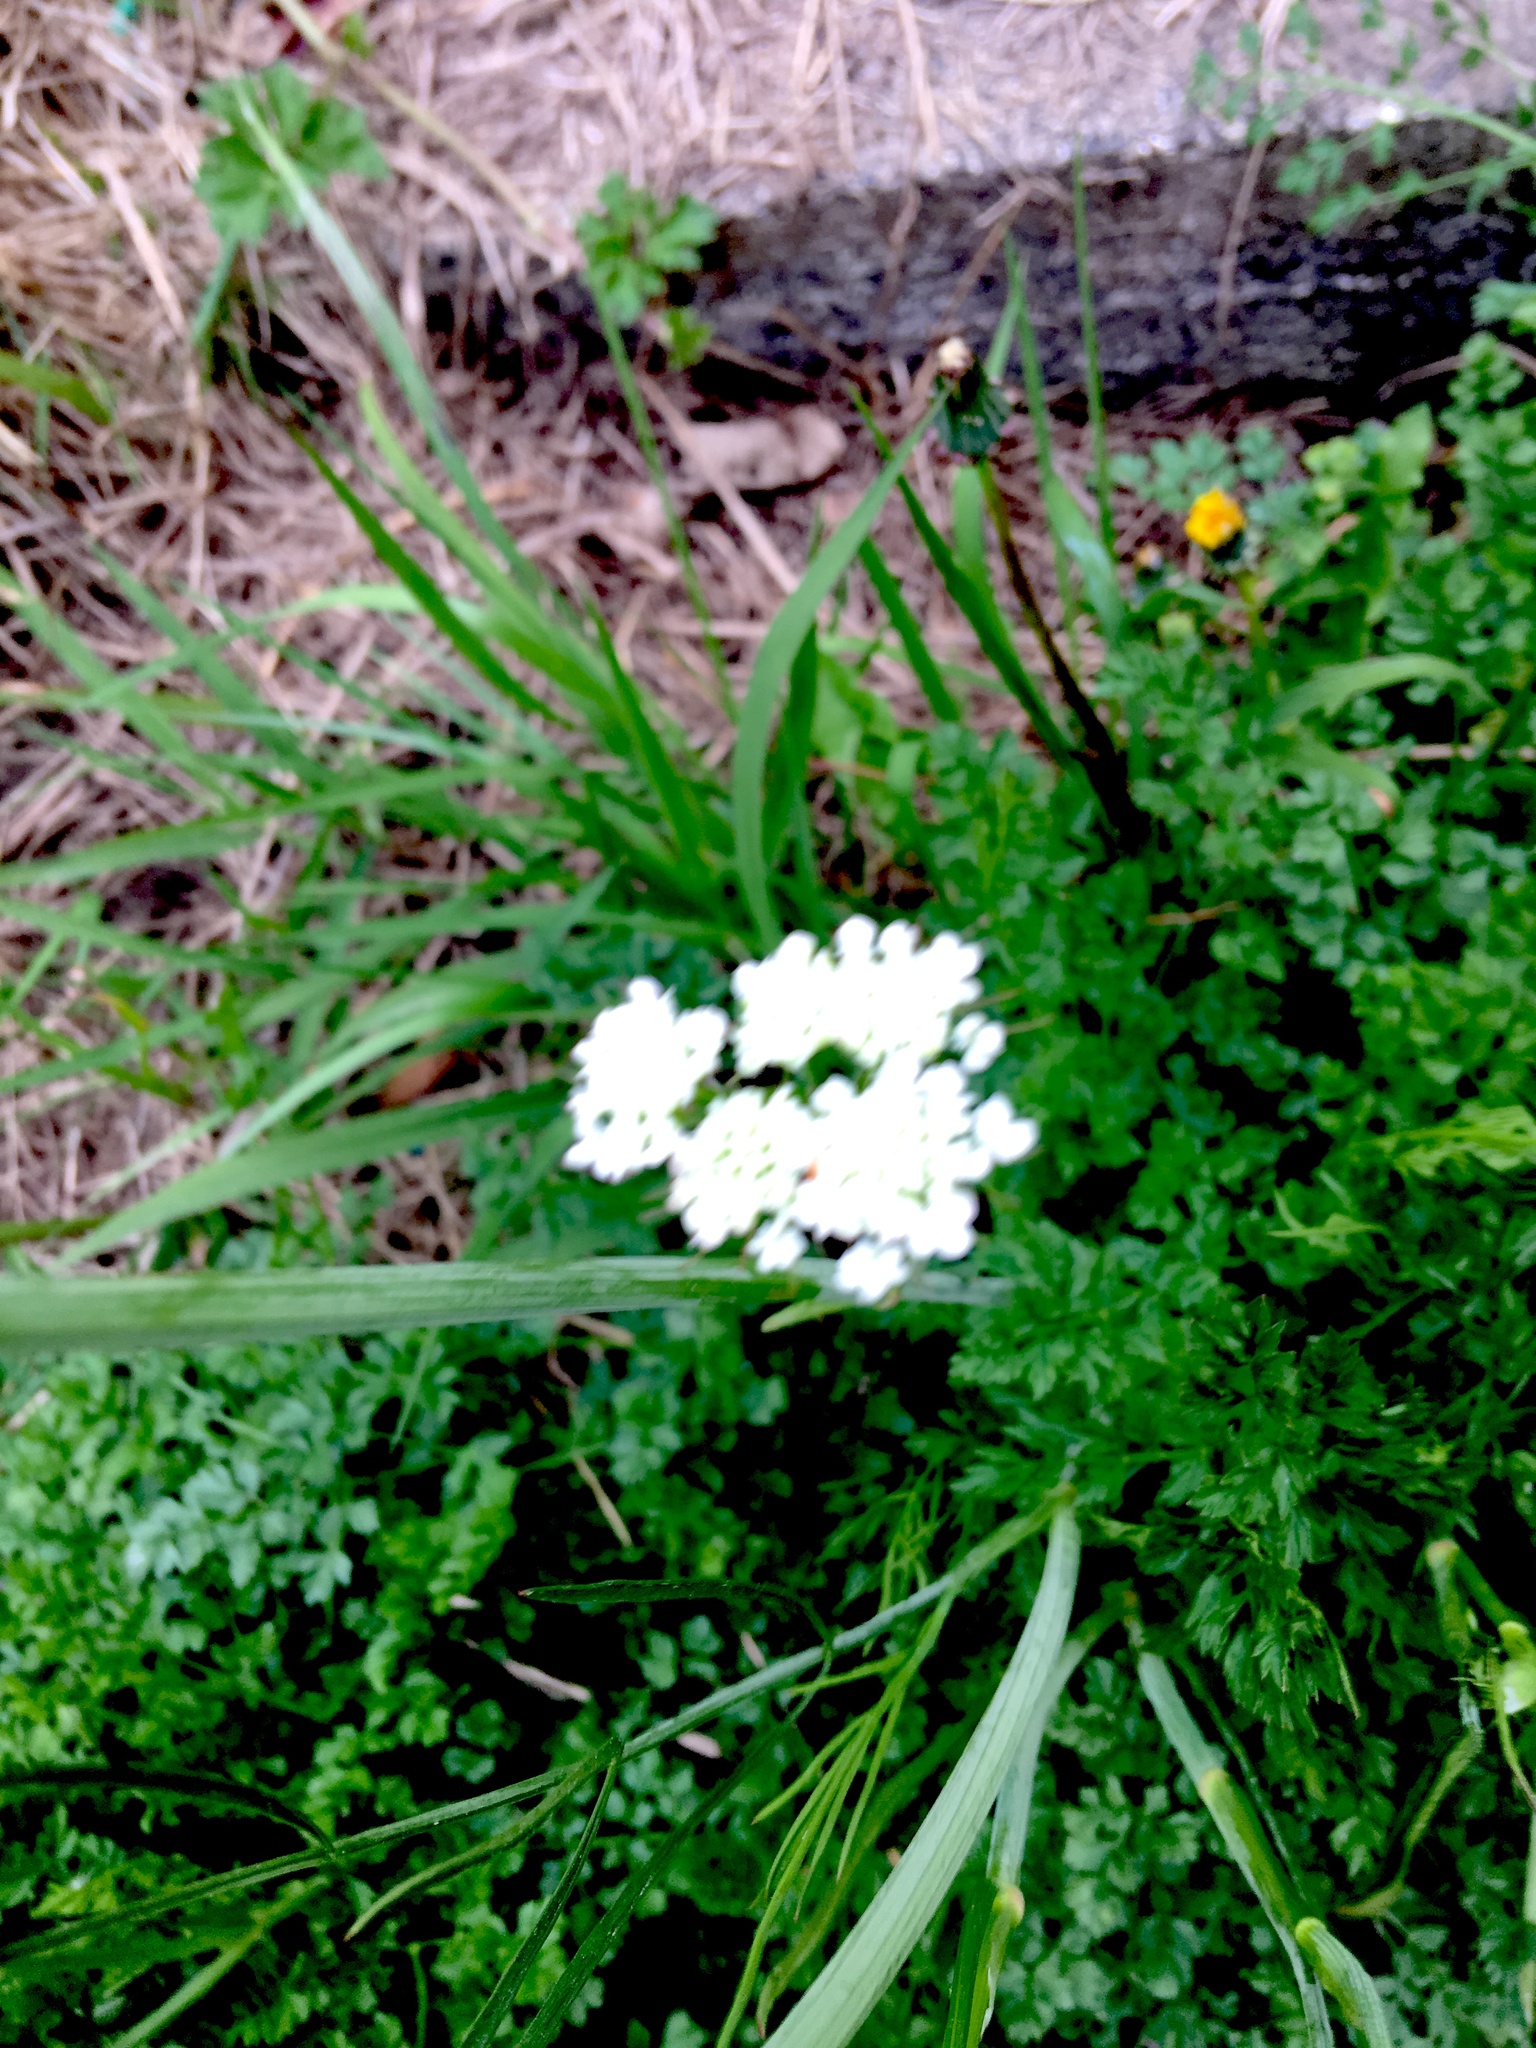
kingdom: Plantae
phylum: Tracheophyta
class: Magnoliopsida
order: Apiales
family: Apiaceae
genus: Daucus
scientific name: Daucus carota
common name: Wild carrot
